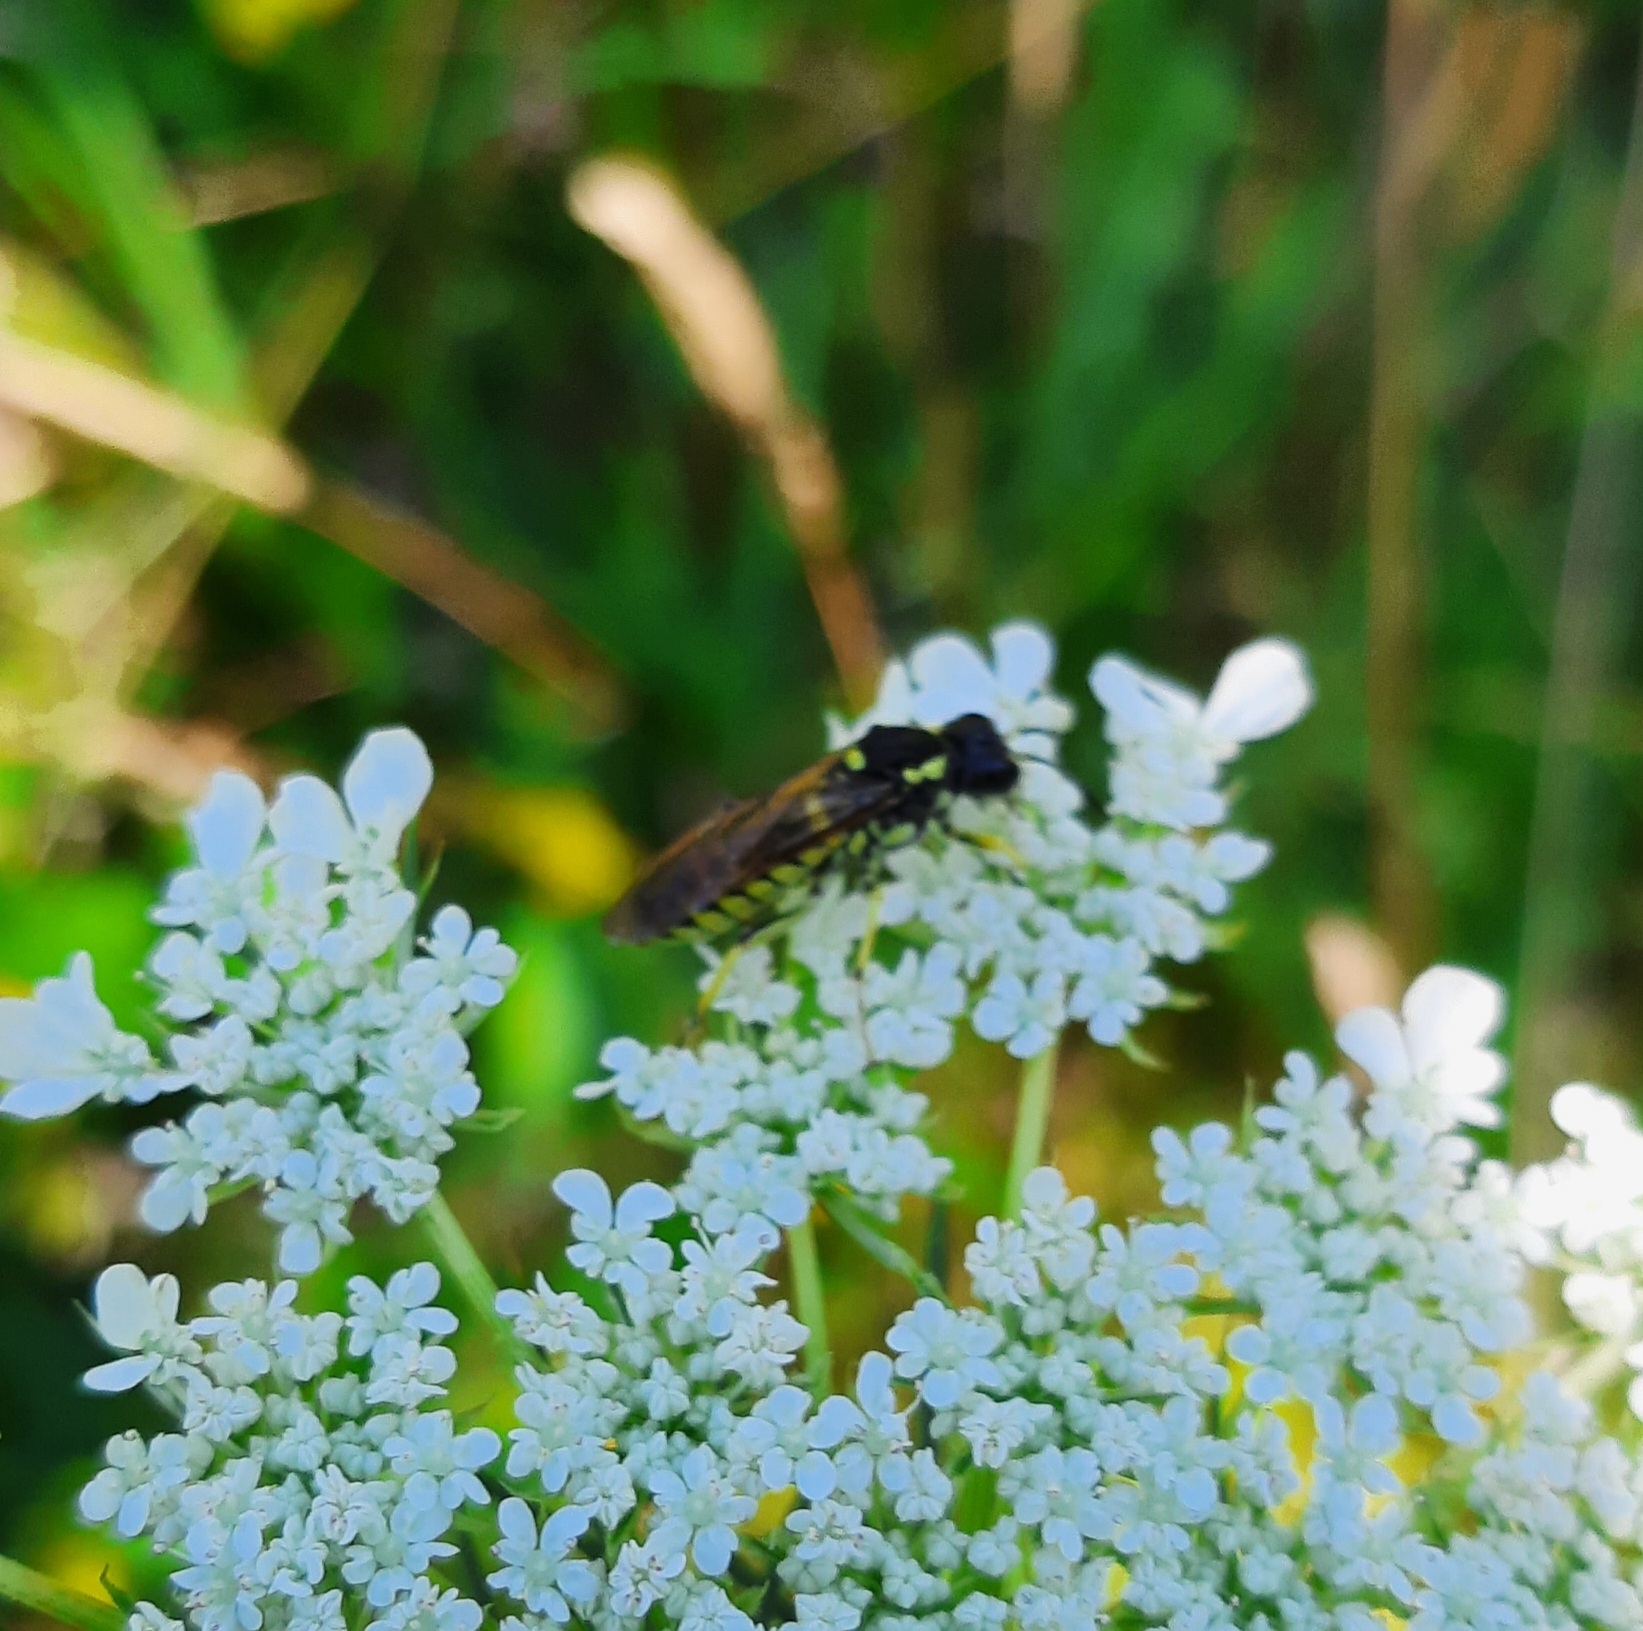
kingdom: Animalia
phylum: Arthropoda
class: Insecta
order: Hymenoptera
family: Tenthredinidae
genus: Tenthredo
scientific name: Tenthredo
